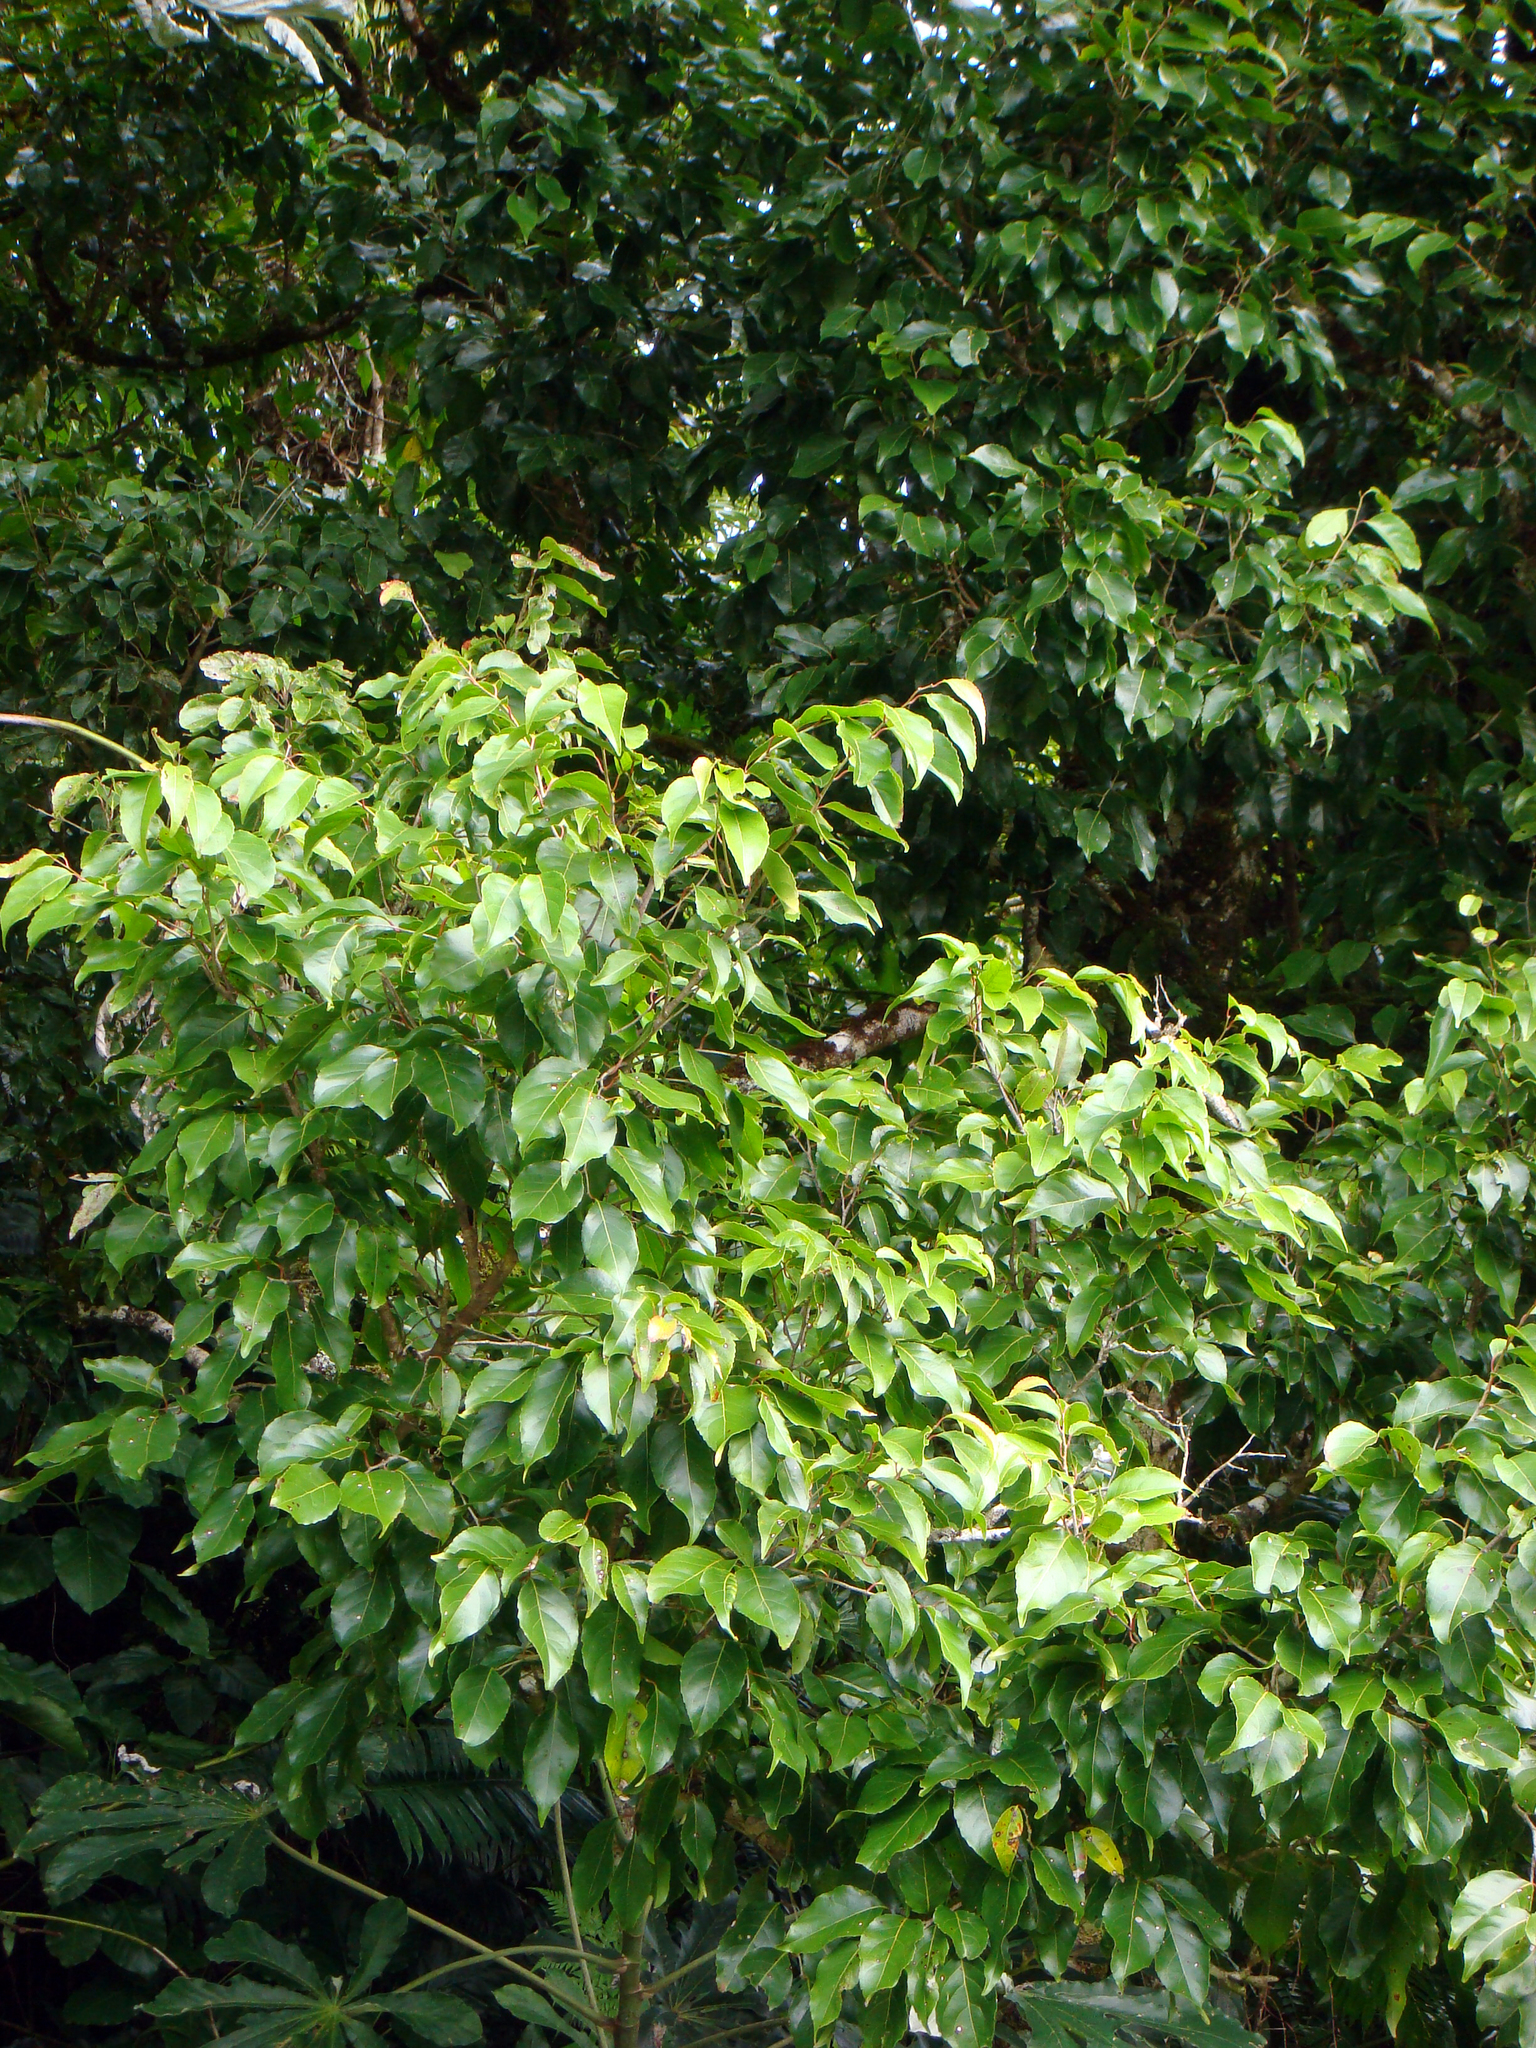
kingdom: Plantae
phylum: Tracheophyta
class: Magnoliopsida
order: Malpighiales
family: Salicaceae
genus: Homalium
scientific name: Homalium acuminatum
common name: Rarotonga homalium
